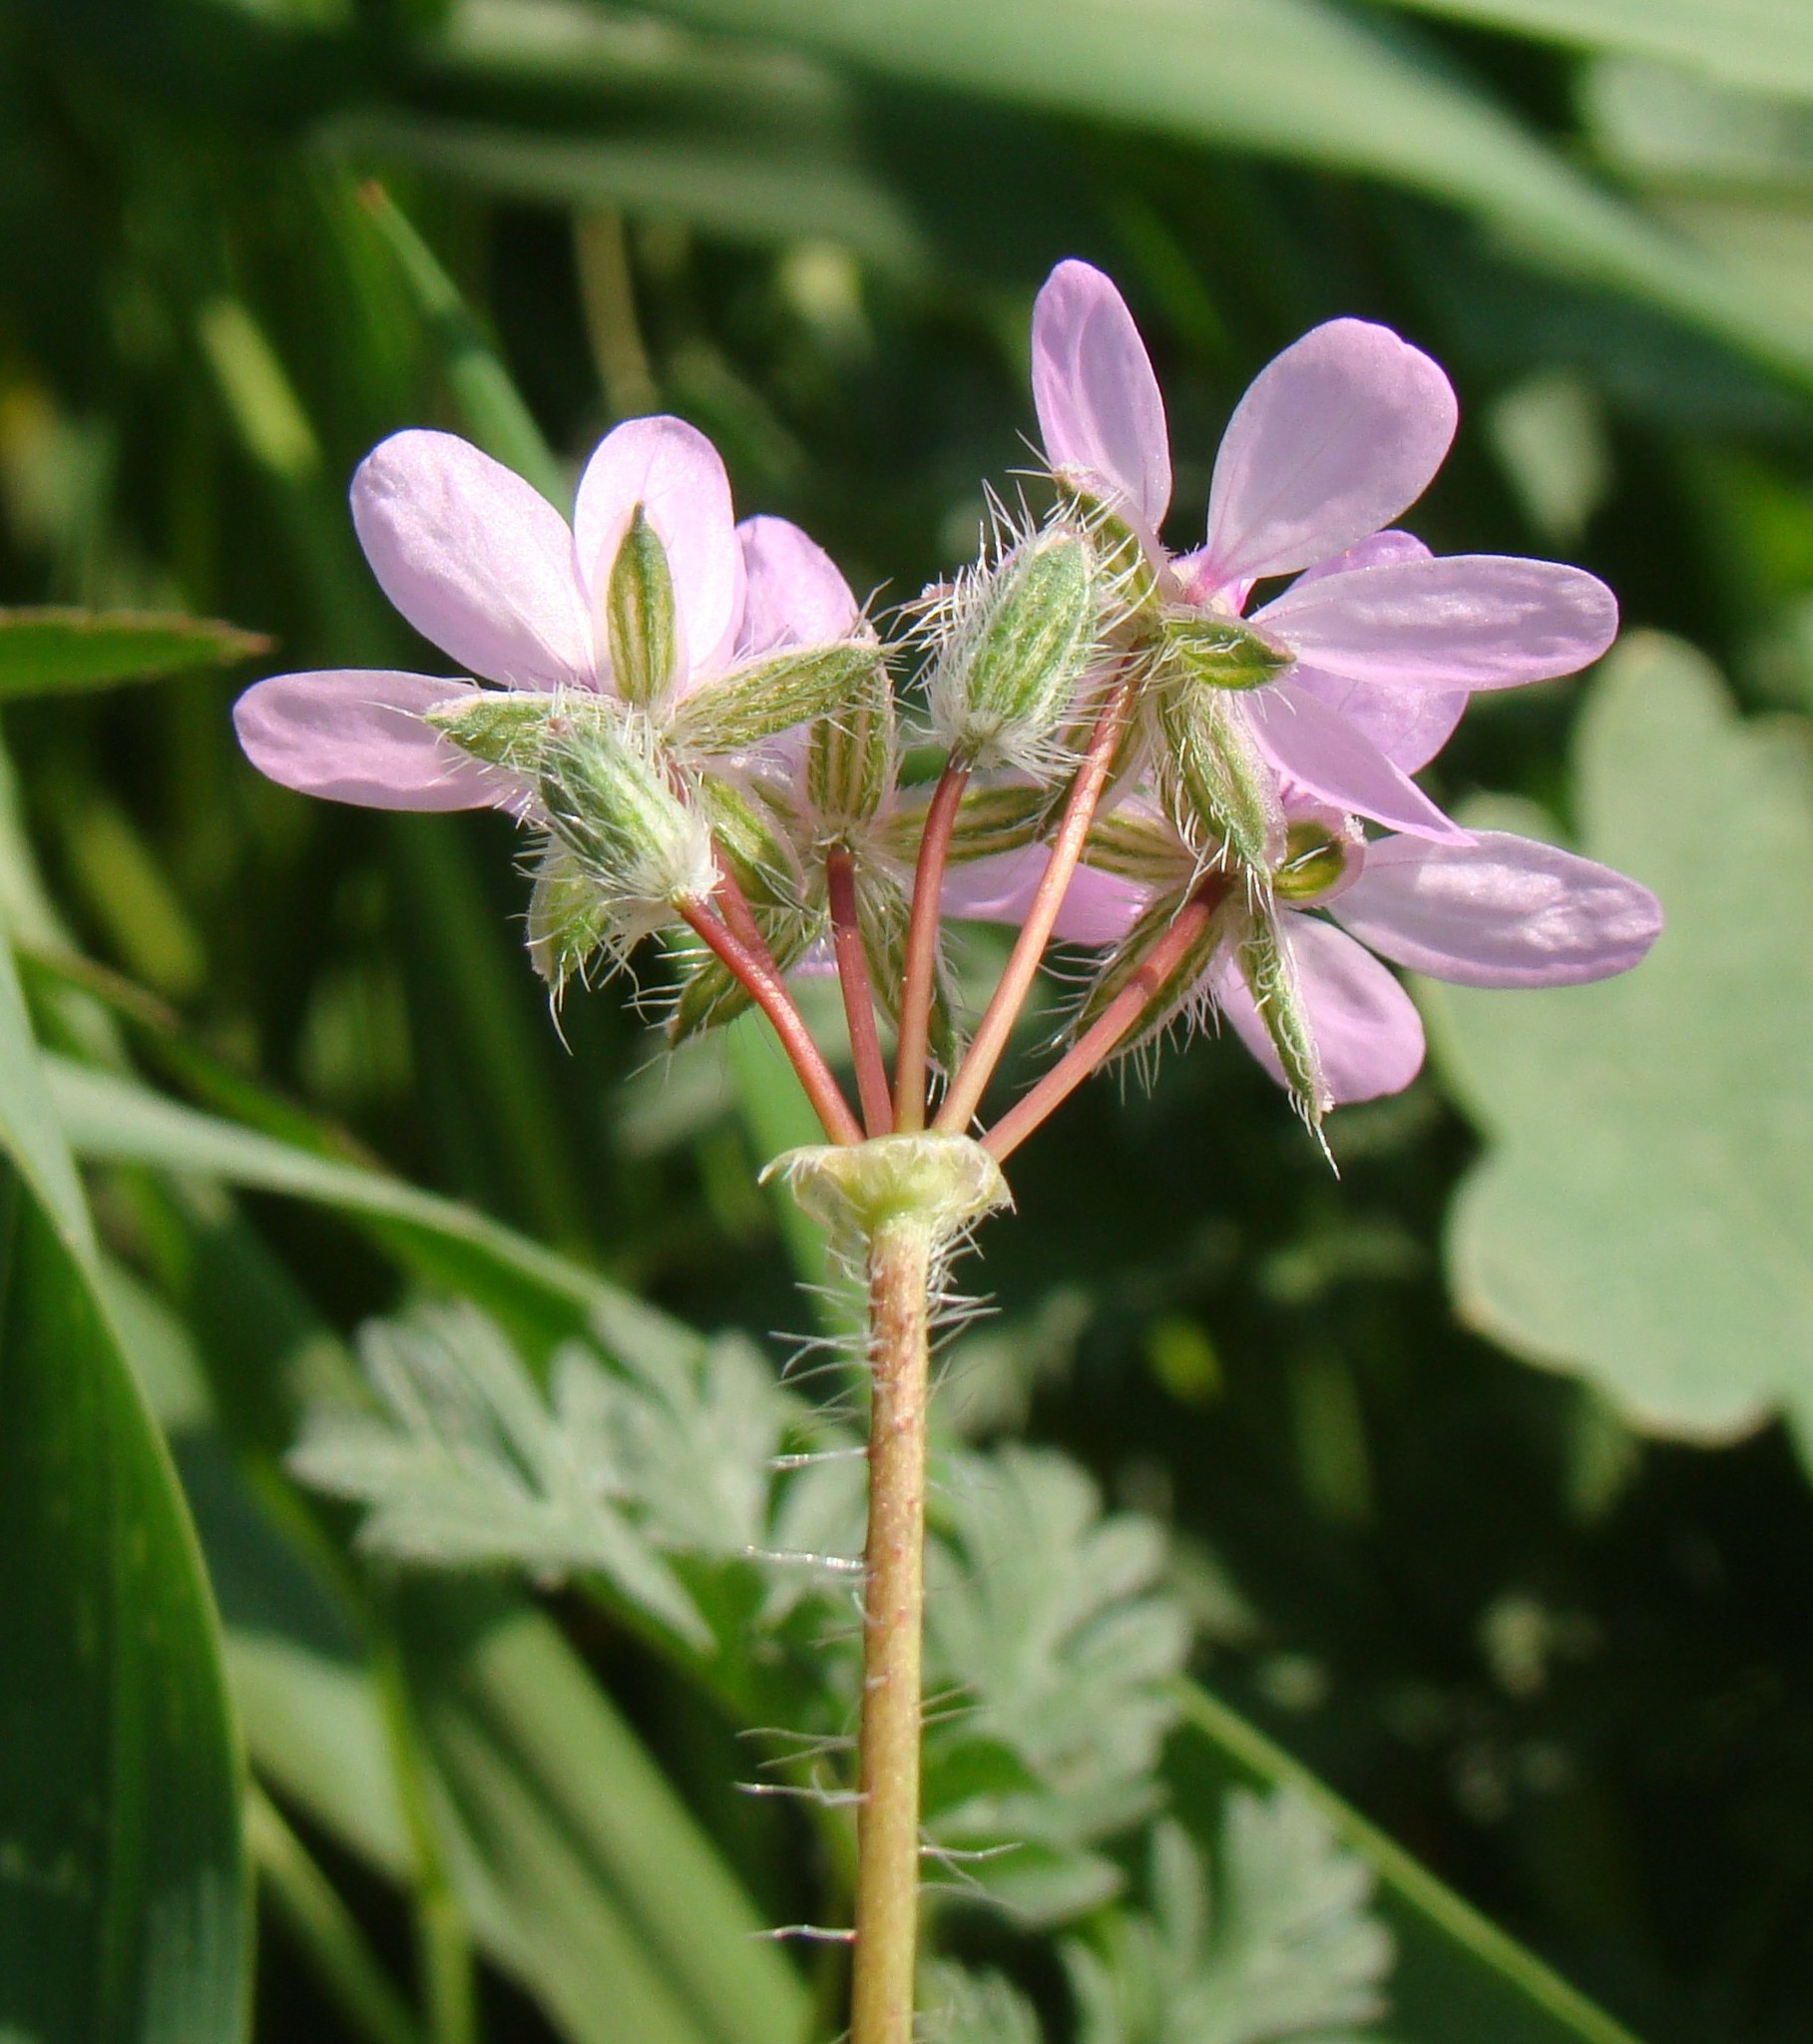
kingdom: Plantae
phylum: Tracheophyta
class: Magnoliopsida
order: Geraniales
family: Geraniaceae
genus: Erodium
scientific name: Erodium cicutarium
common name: Common stork's-bill
